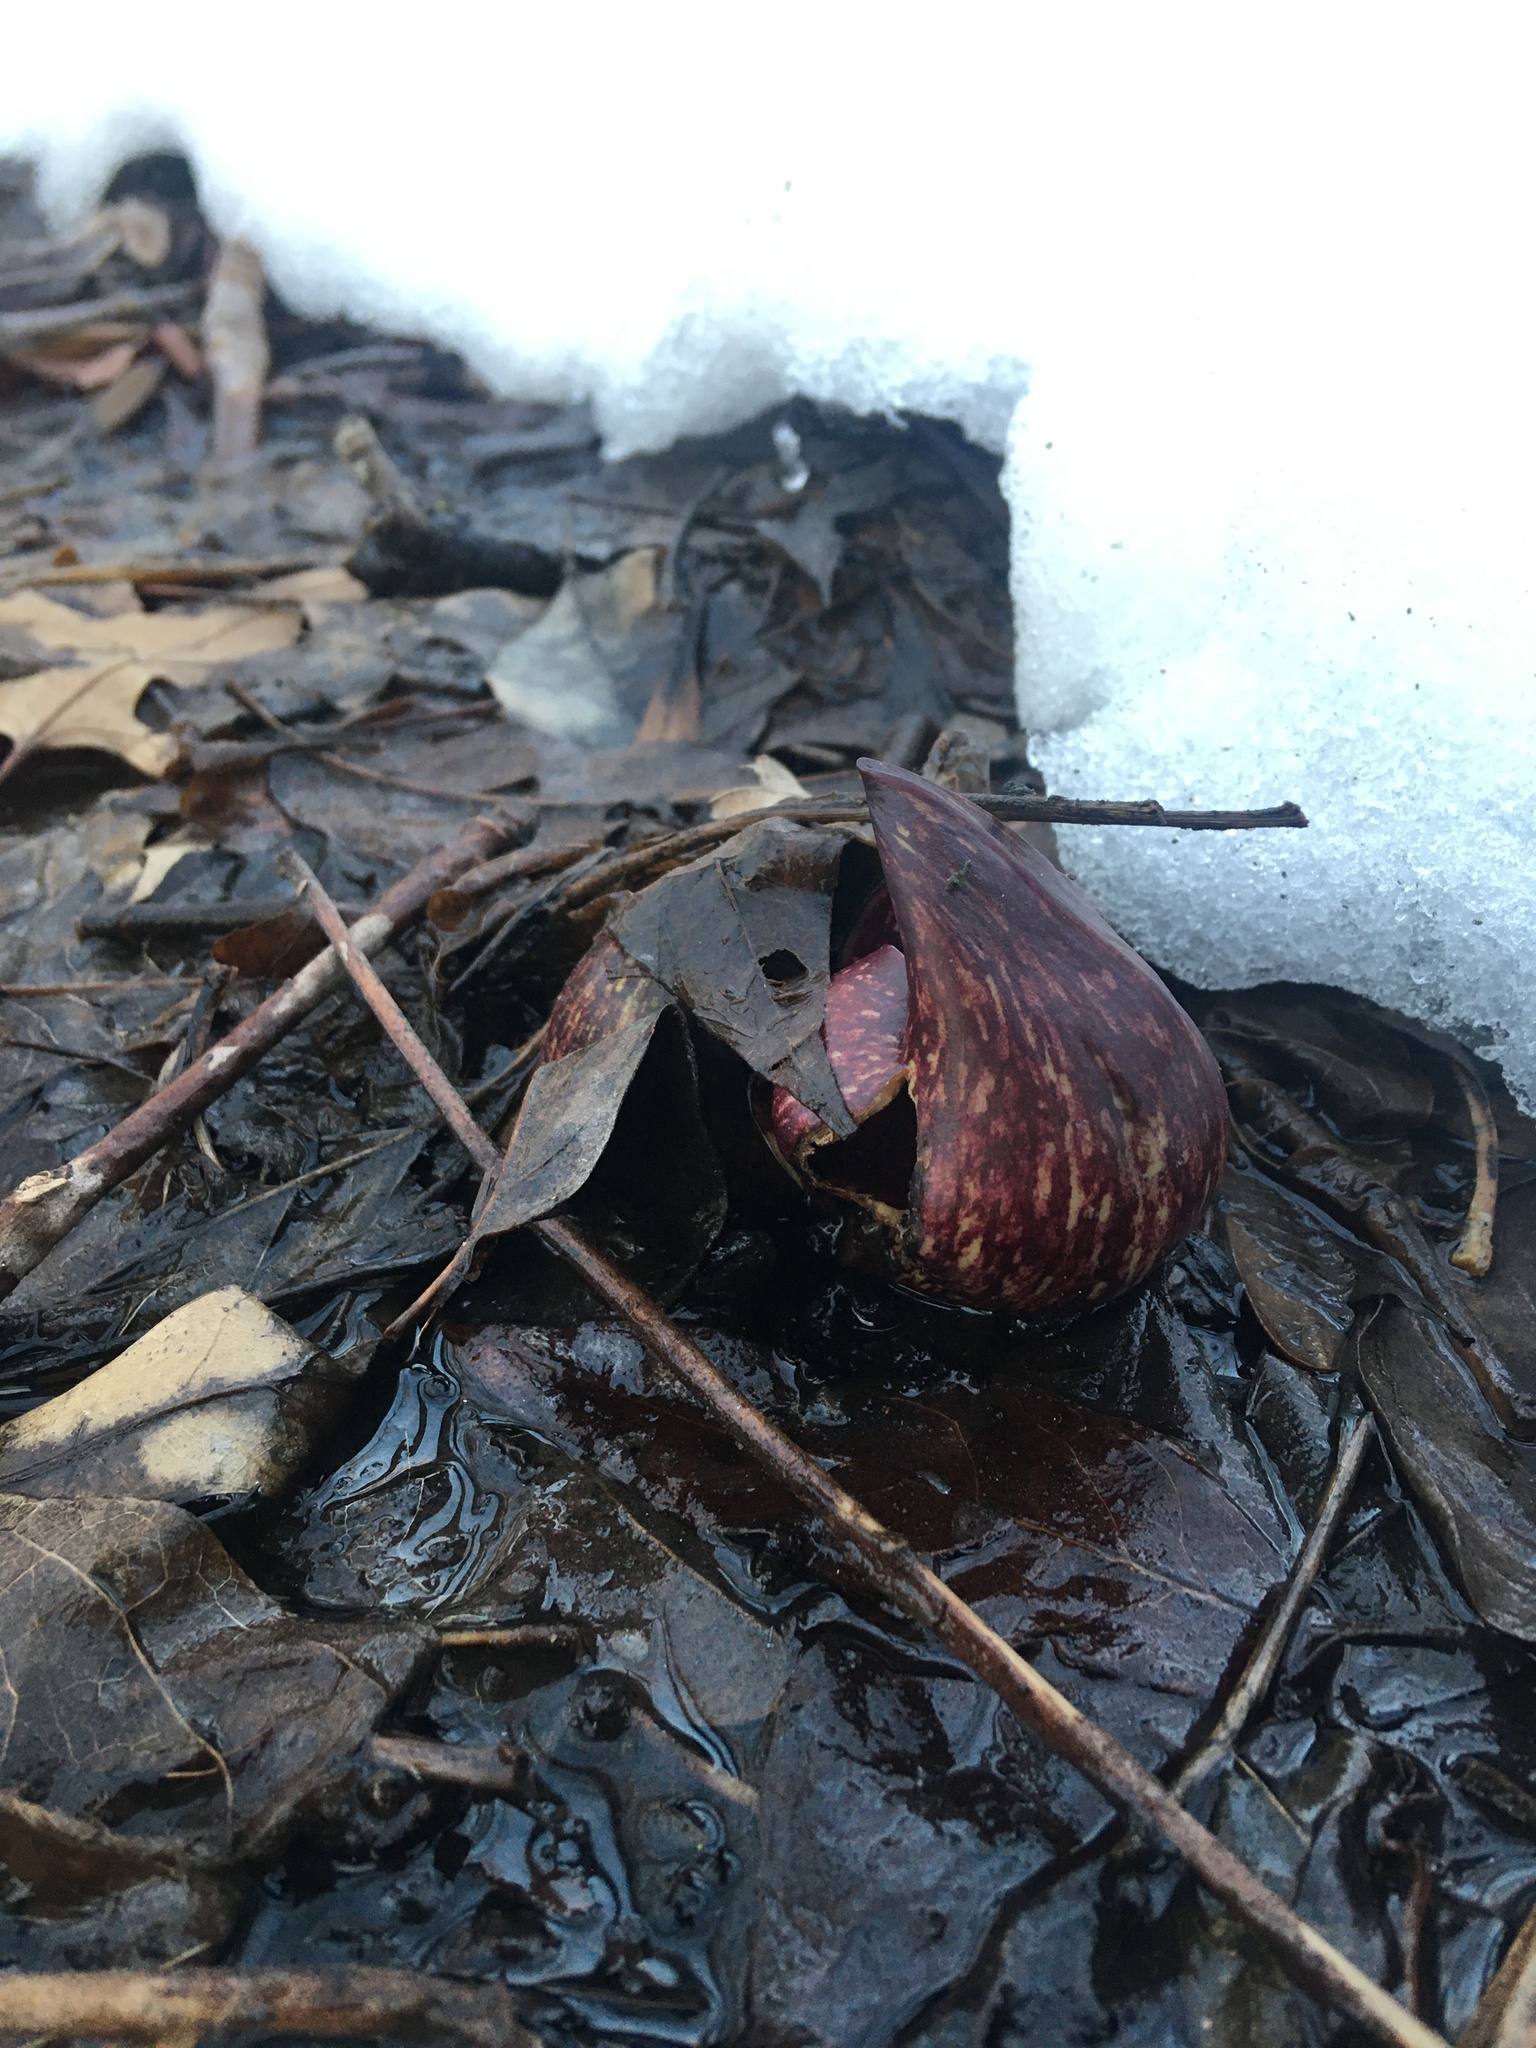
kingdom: Plantae
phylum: Tracheophyta
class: Liliopsida
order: Alismatales
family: Araceae
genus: Symplocarpus
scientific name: Symplocarpus foetidus
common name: Eastern skunk cabbage
